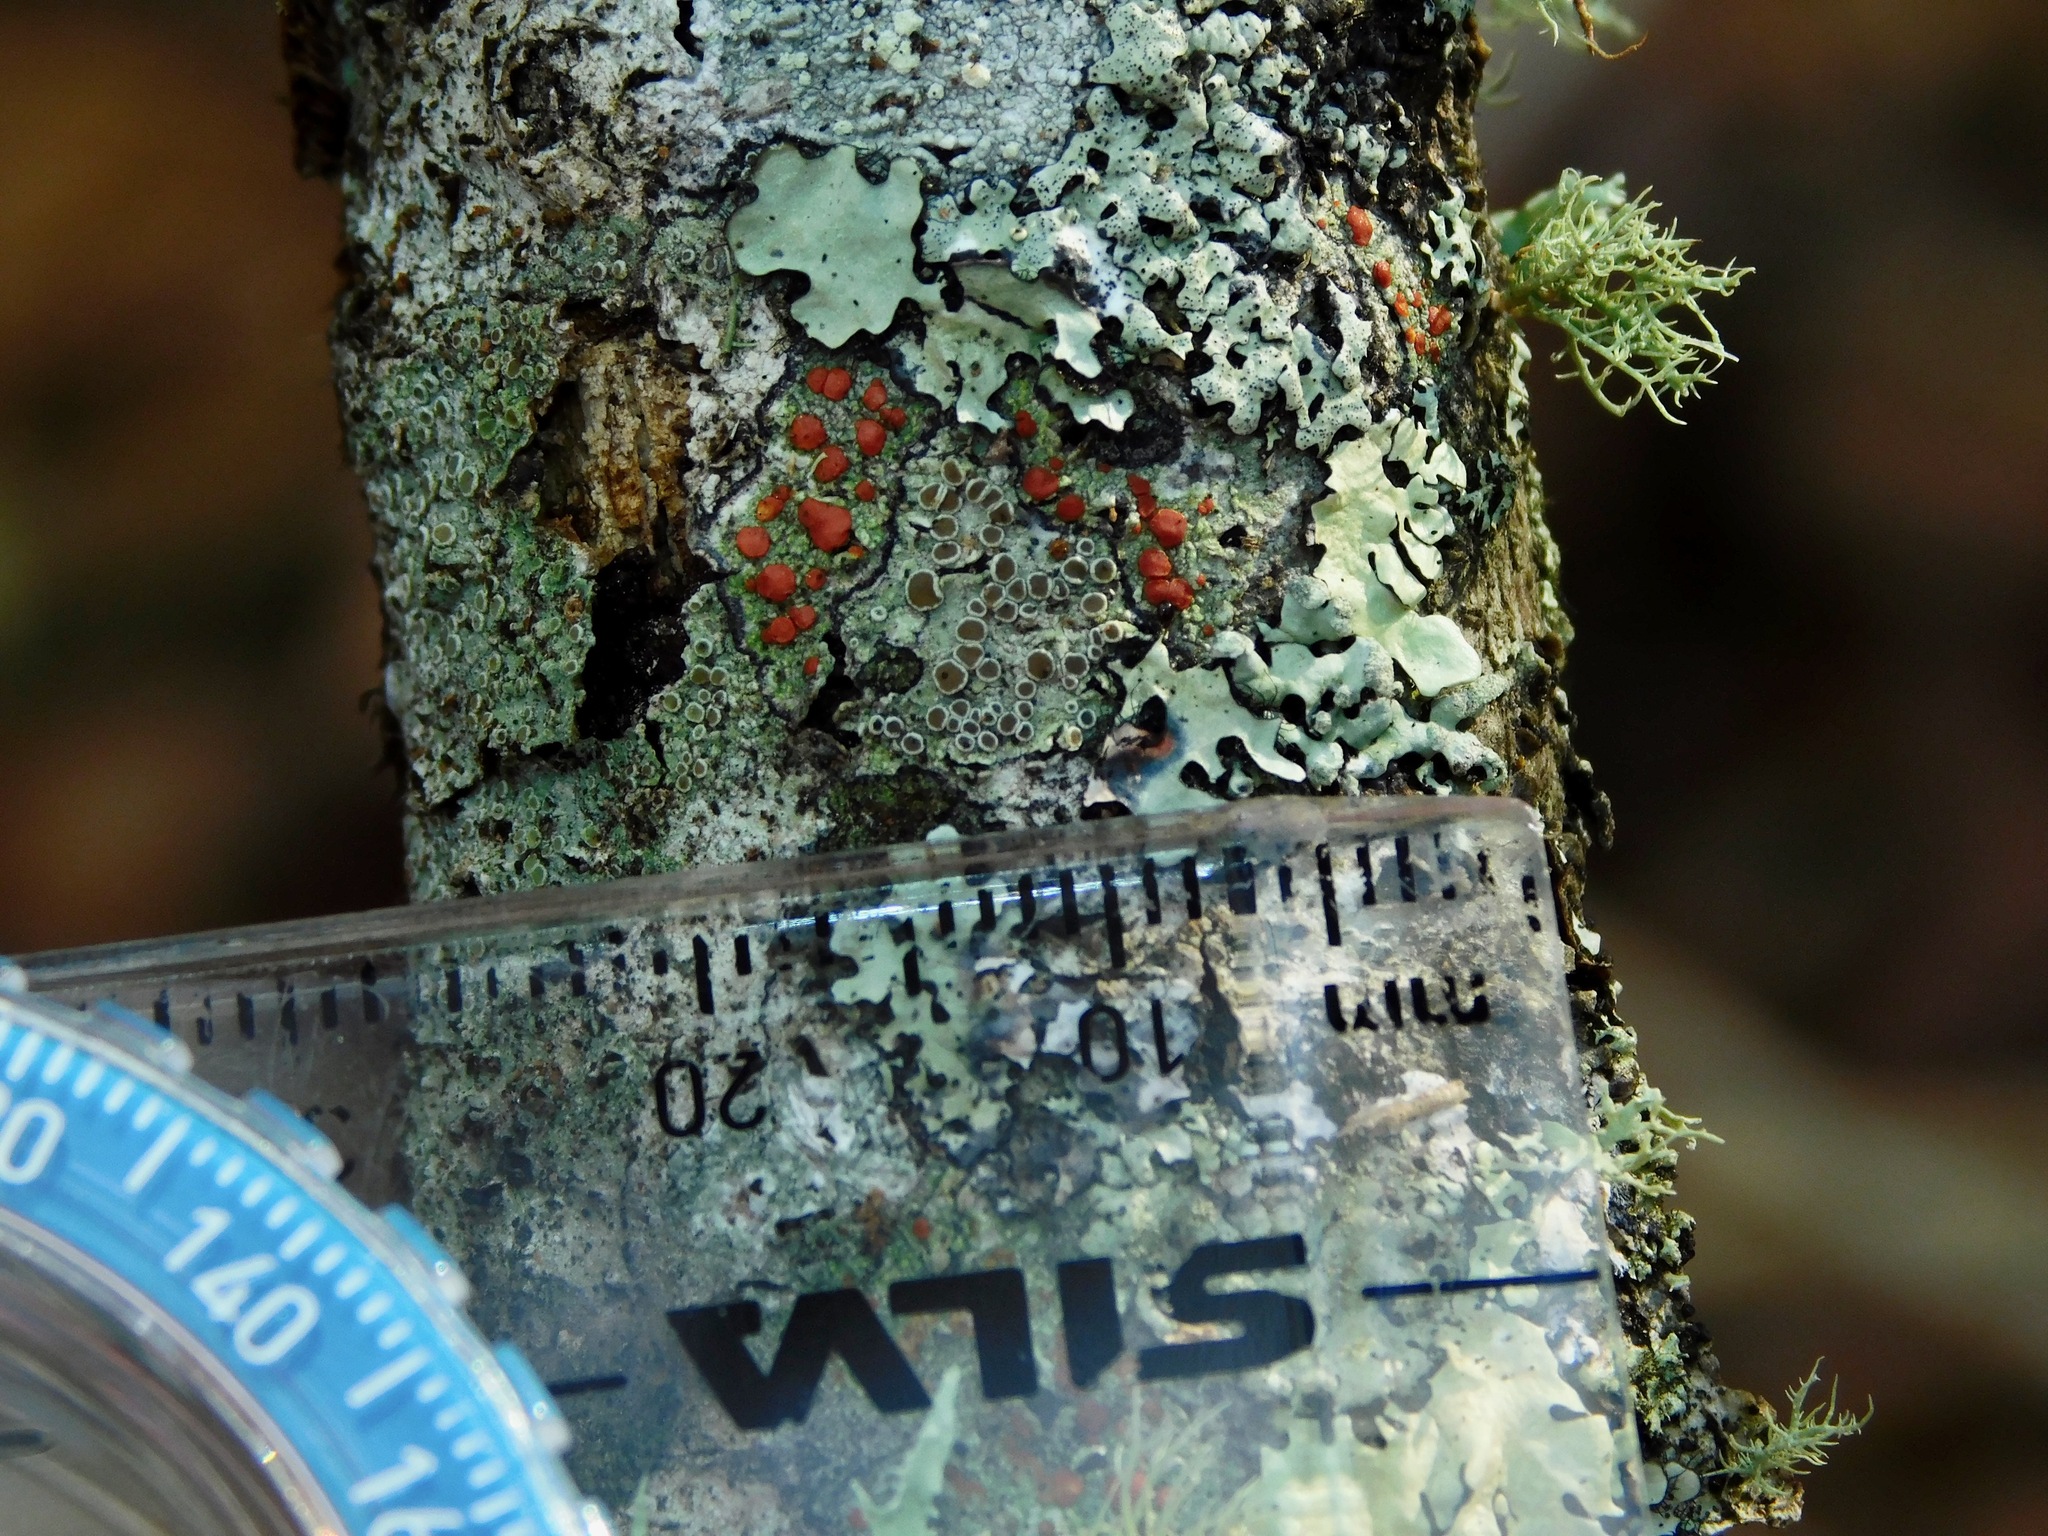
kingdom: Fungi
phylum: Ascomycota
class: Lecanoromycetes
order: Lecanorales
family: Ramboldiaceae
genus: Ramboldia
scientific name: Ramboldia russula
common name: Red heads
